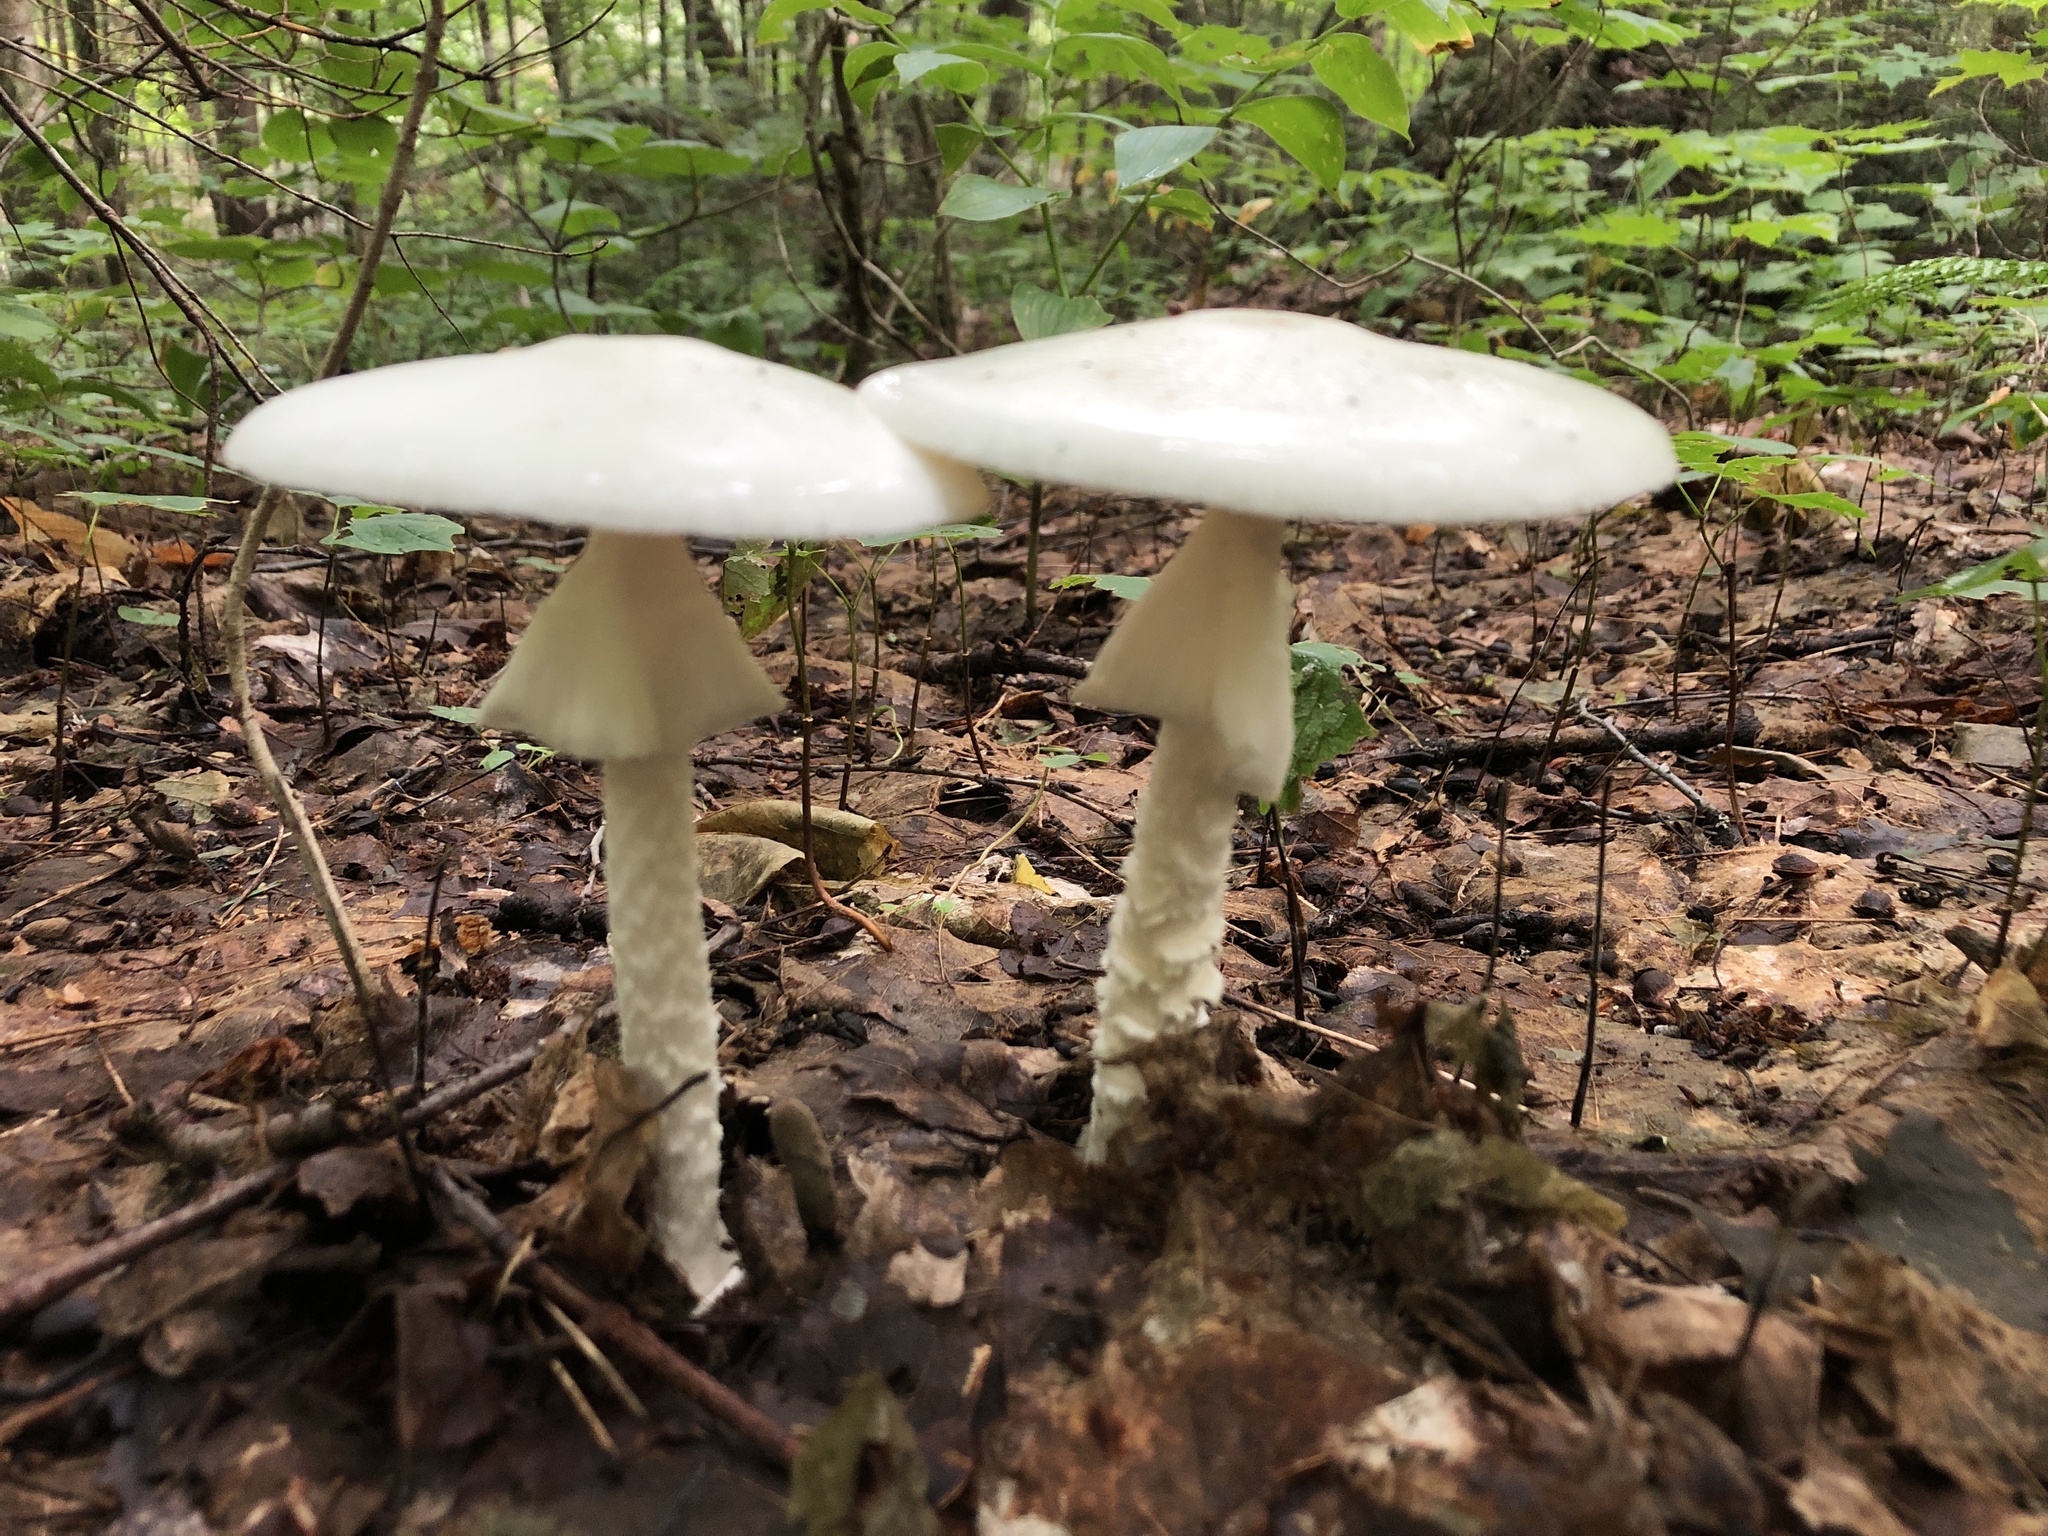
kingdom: Fungi
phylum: Basidiomycota
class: Agaricomycetes
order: Agaricales
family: Amanitaceae
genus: Amanita
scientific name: Amanita bisporigera
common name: Eastern north american destroying angel
